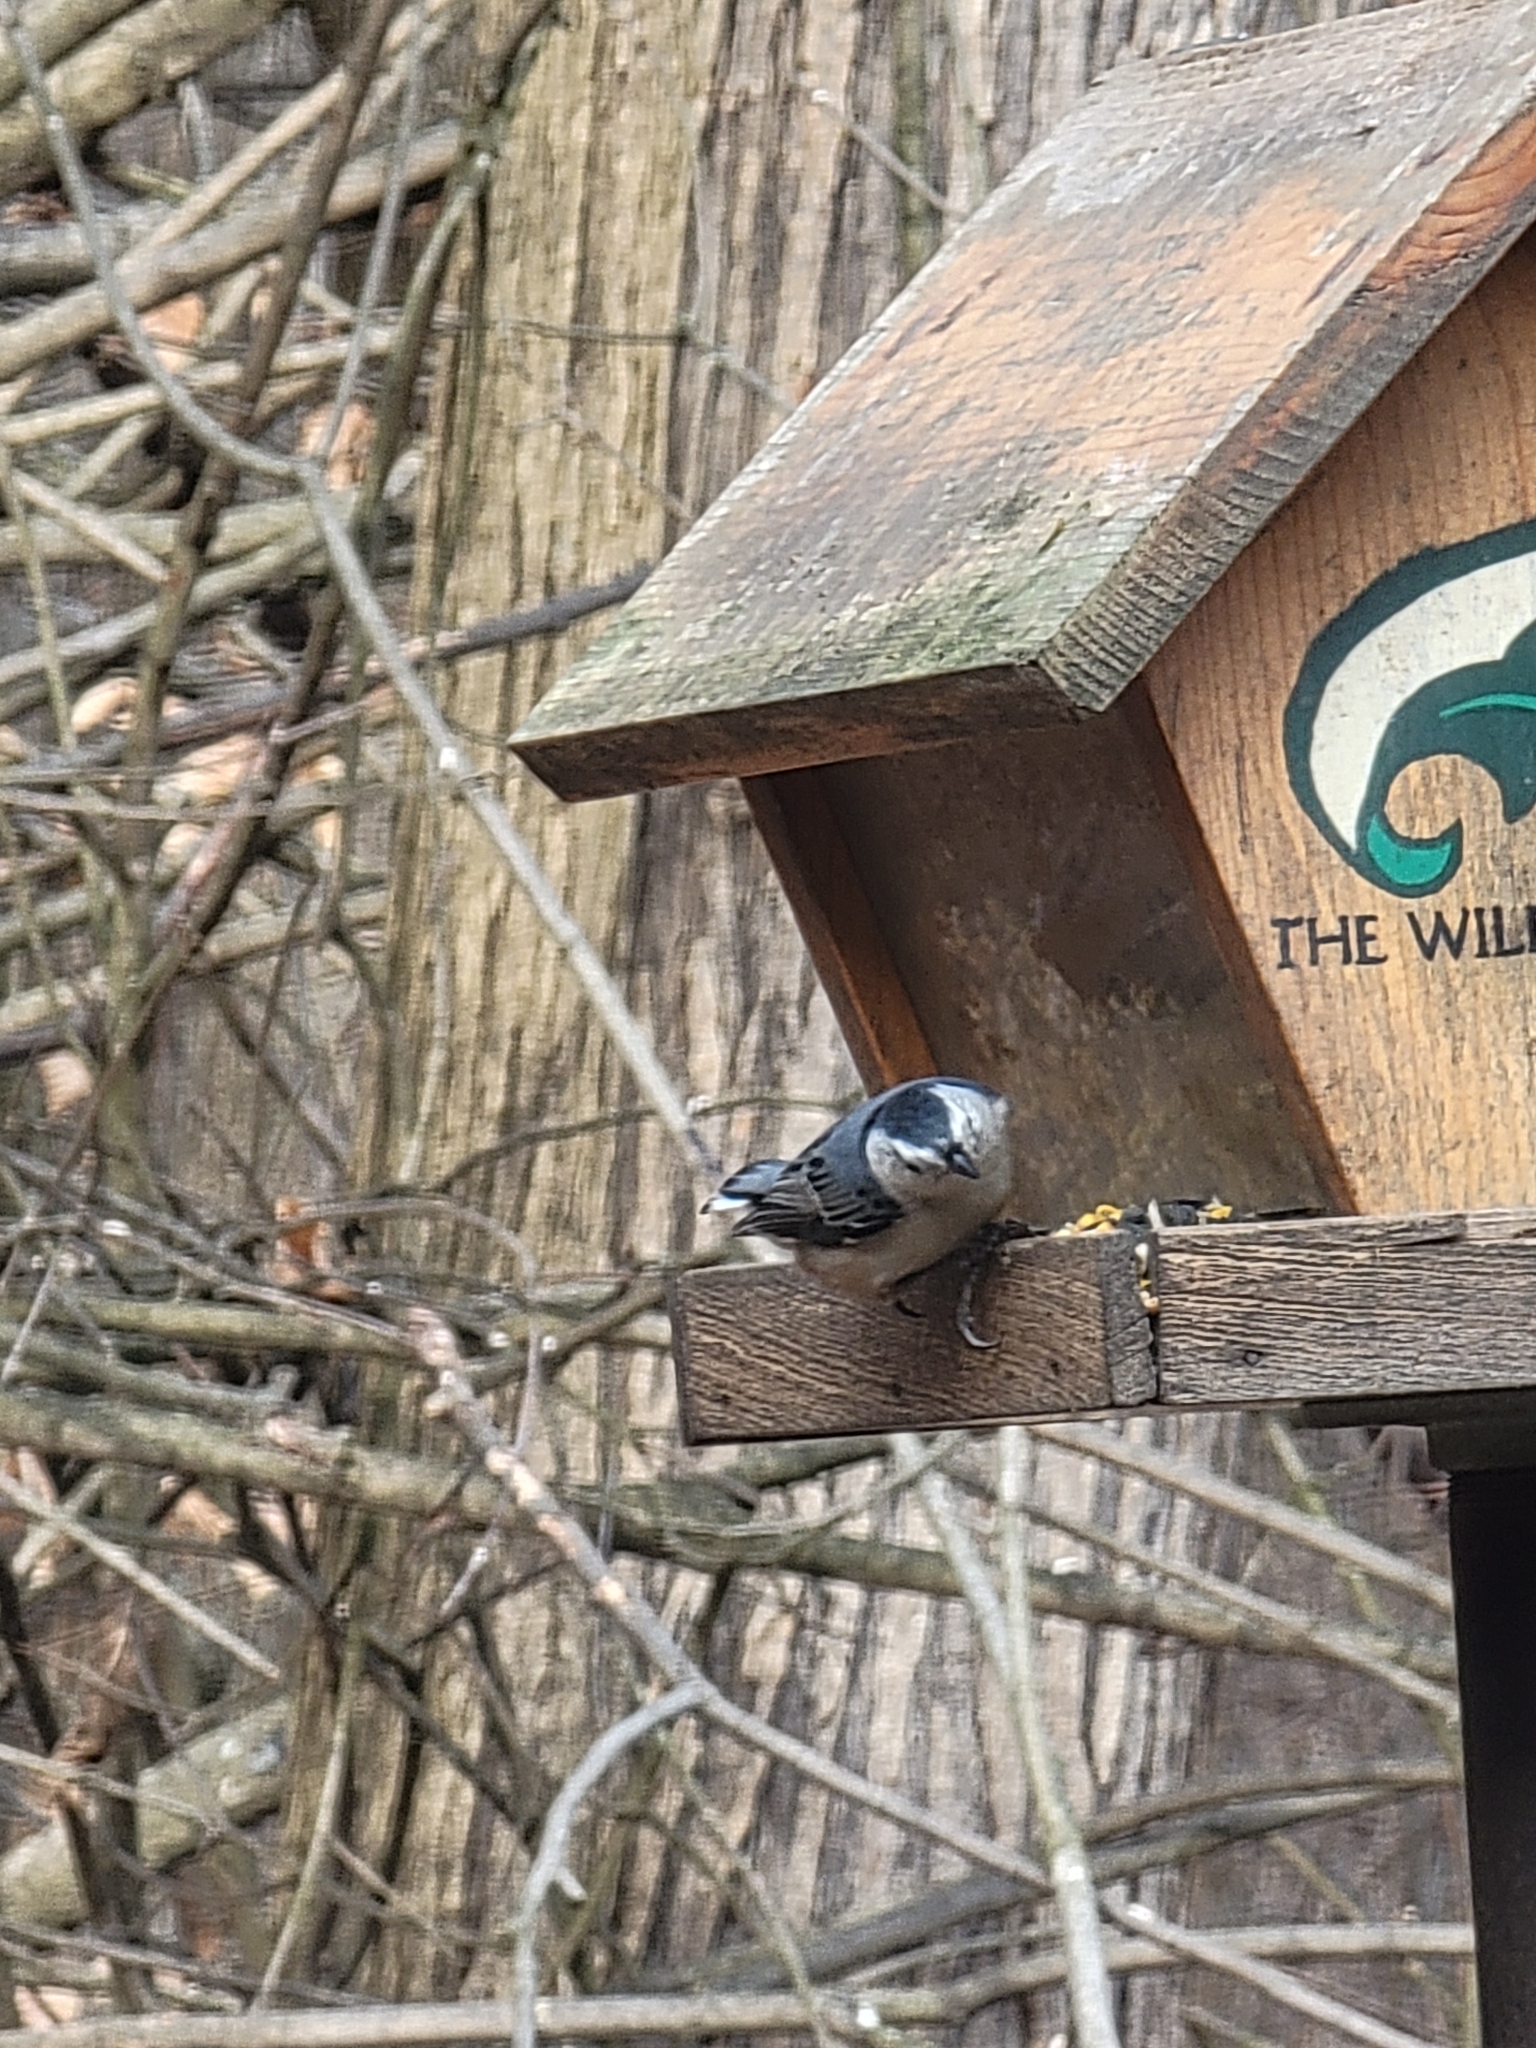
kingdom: Animalia
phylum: Chordata
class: Aves
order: Passeriformes
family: Sittidae
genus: Sitta
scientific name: Sitta carolinensis
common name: White-breasted nuthatch
